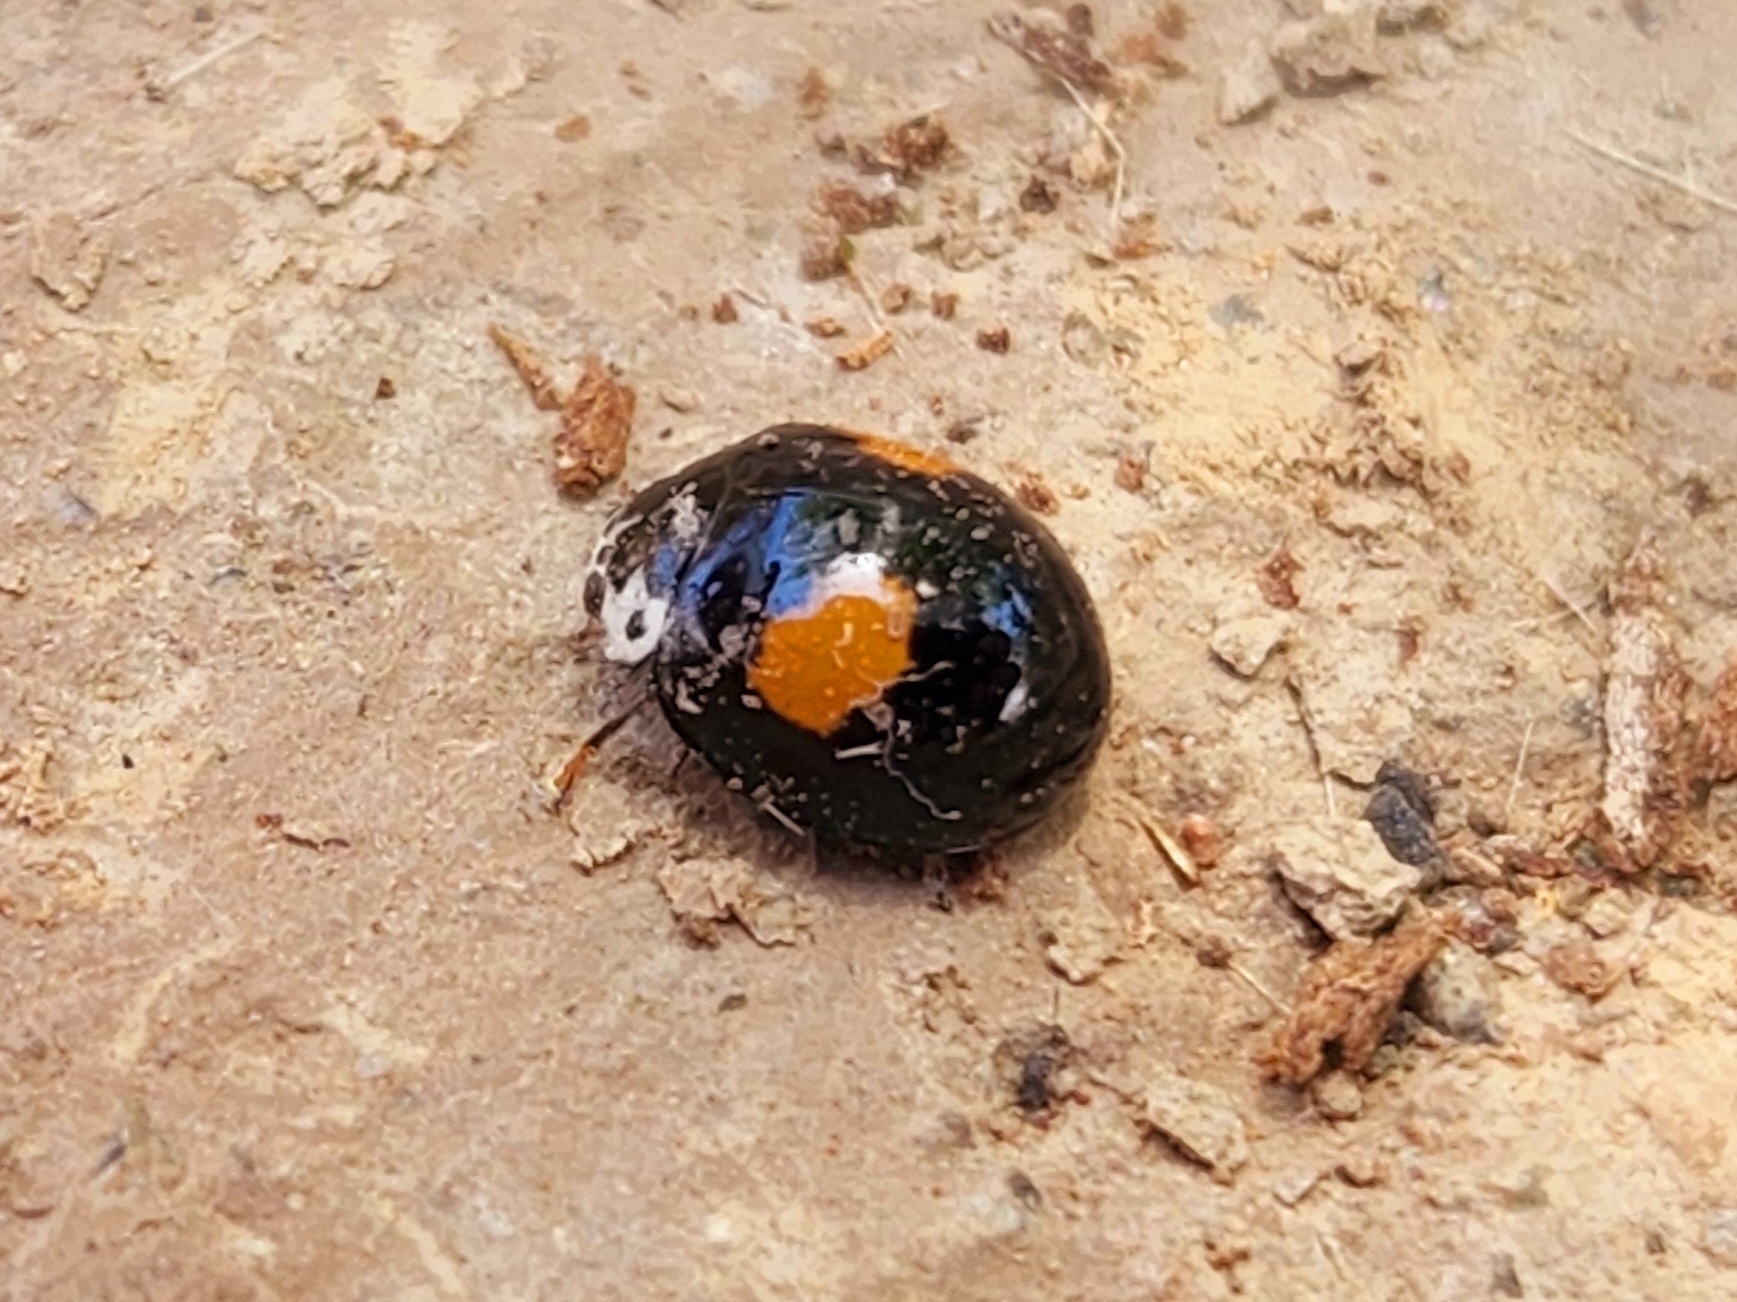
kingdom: Animalia
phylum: Arthropoda
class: Insecta
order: Coleoptera
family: Coccinellidae
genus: Olla
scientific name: Olla v-nigrum
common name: Ashy gray lady beetle
